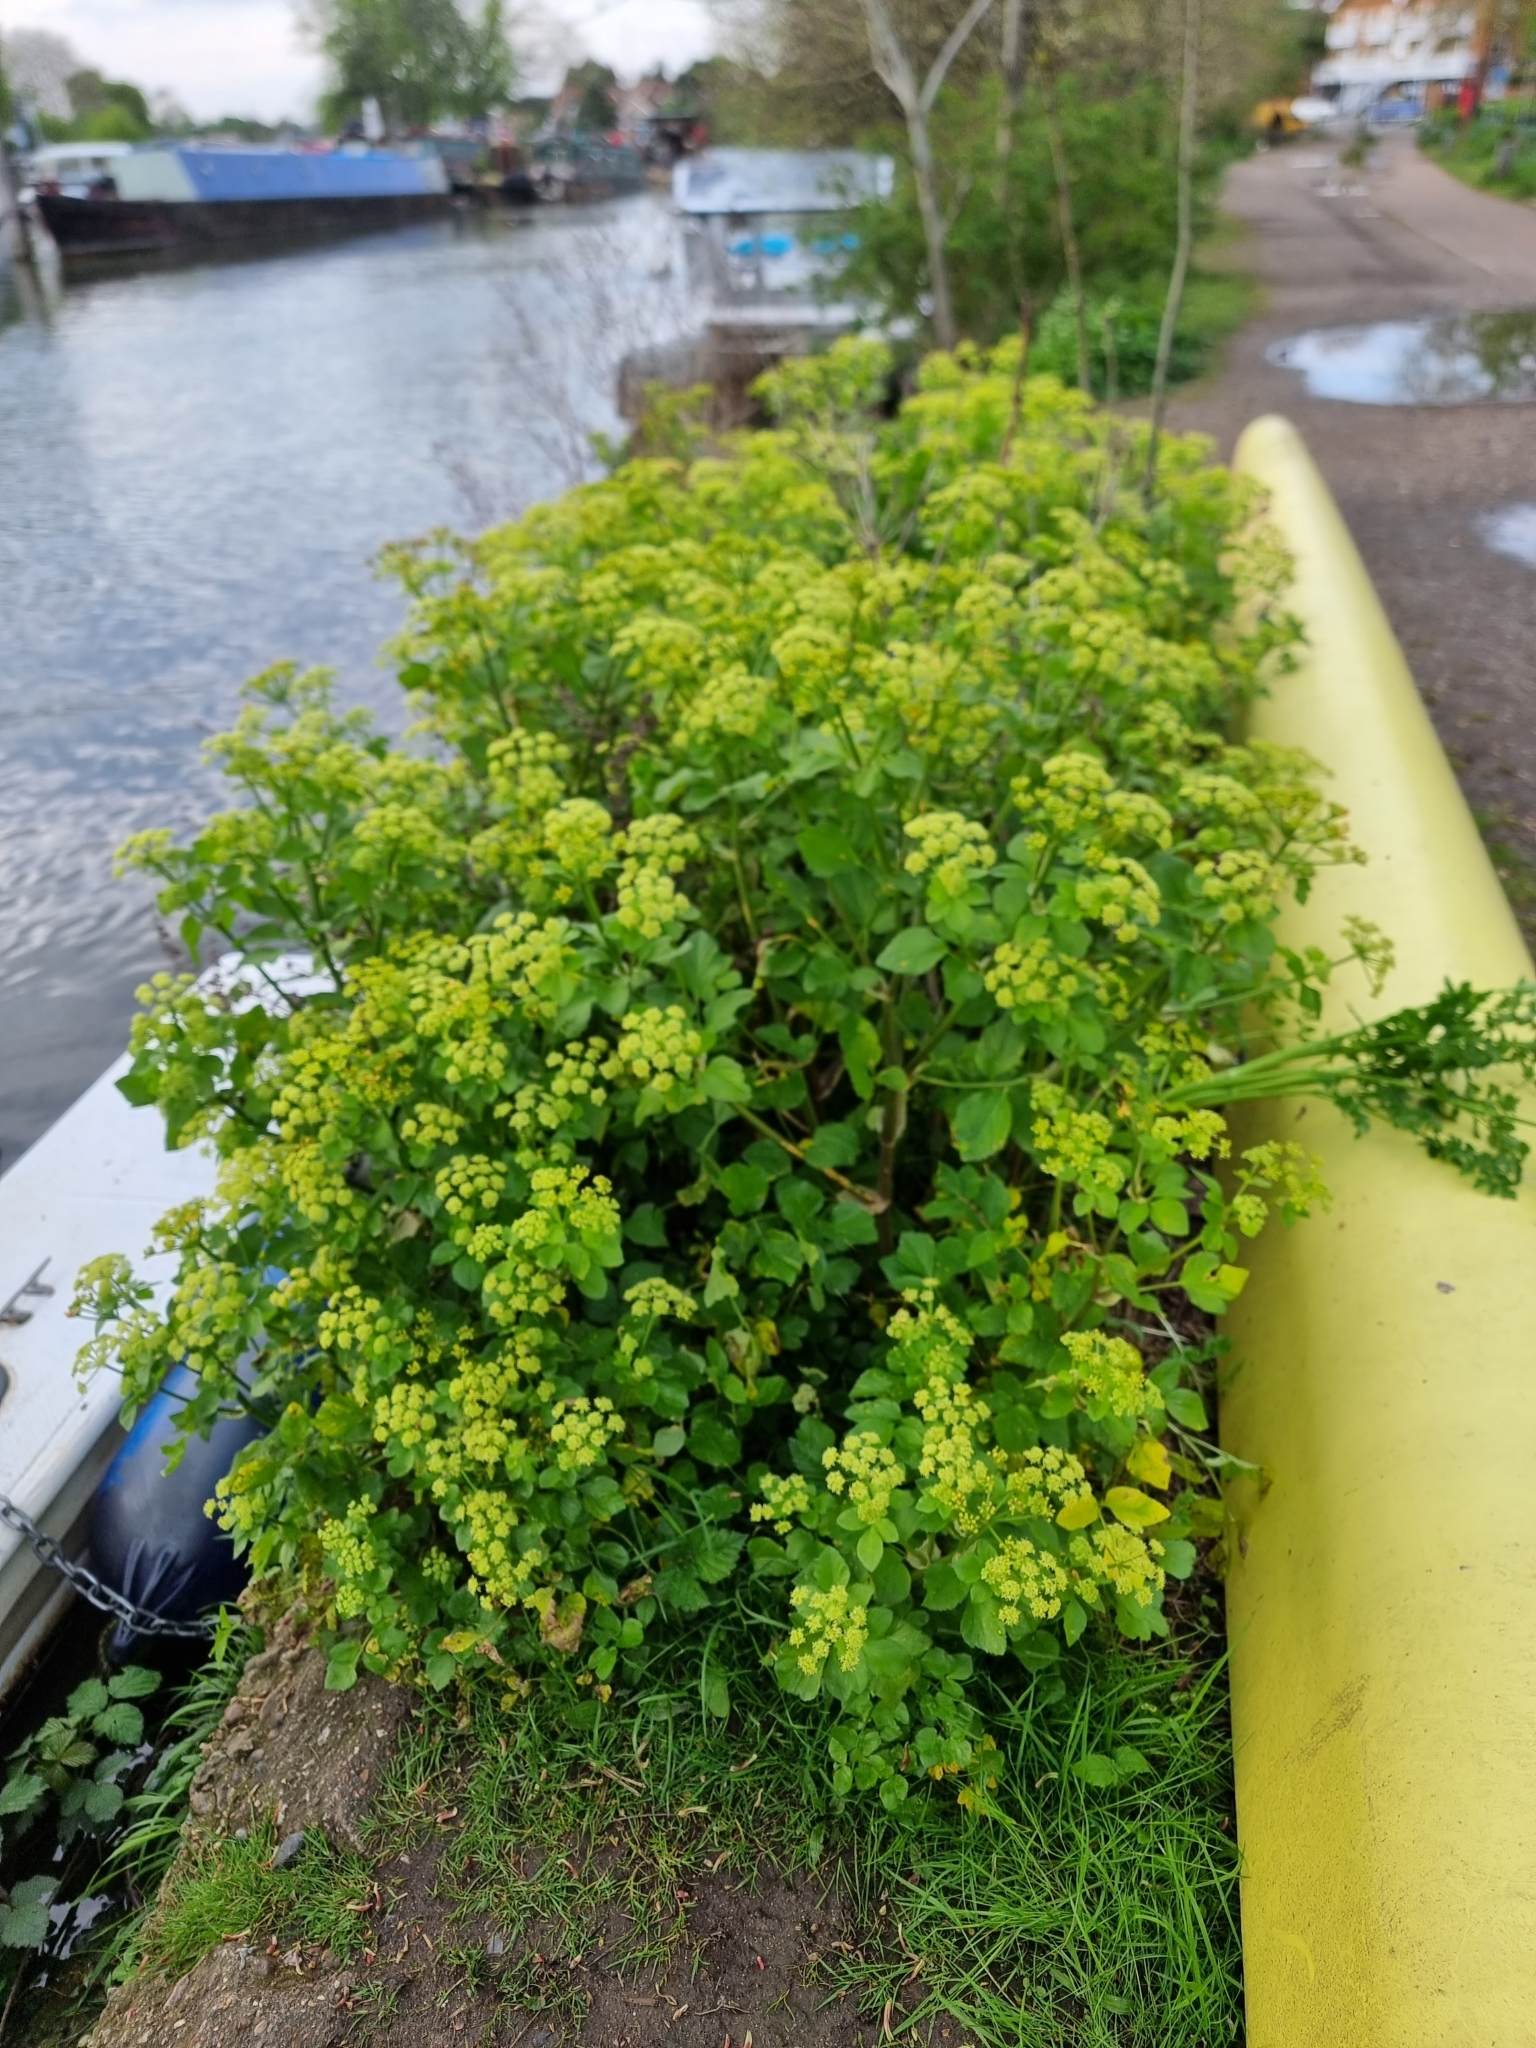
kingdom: Plantae
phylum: Tracheophyta
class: Magnoliopsida
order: Apiales
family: Apiaceae
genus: Smyrnium
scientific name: Smyrnium olusatrum
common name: Alexanders
